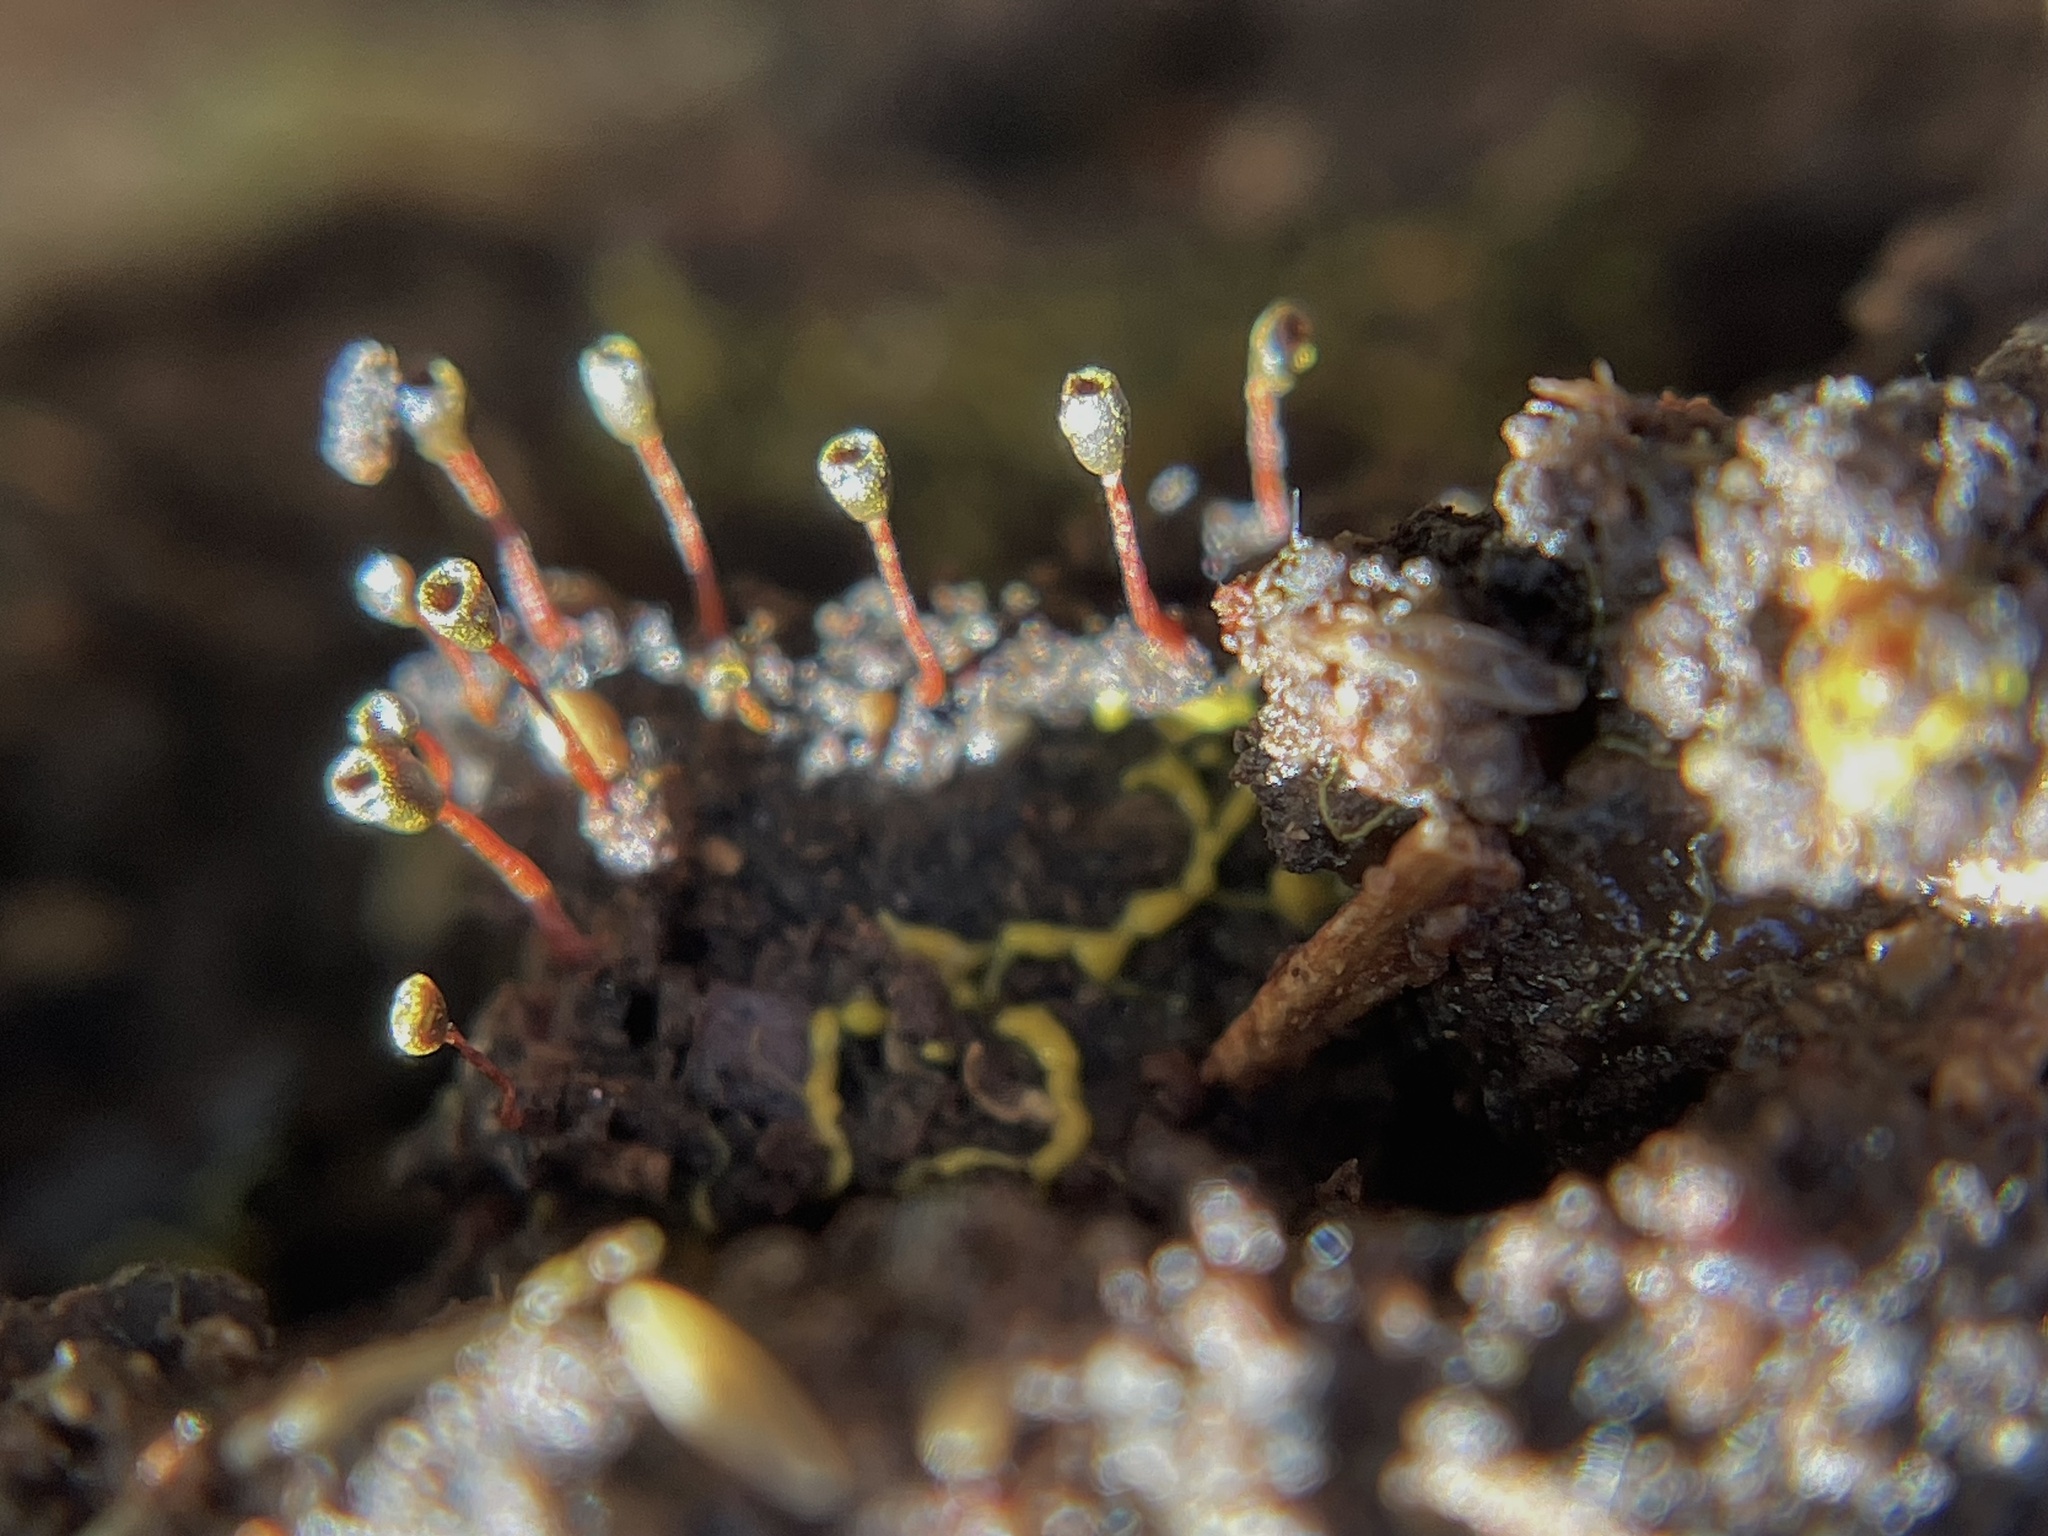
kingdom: Protozoa
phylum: Mycetozoa
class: Myxomycetes
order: Physarales
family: Physaraceae
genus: Physarella
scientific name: Physarella oblonga
